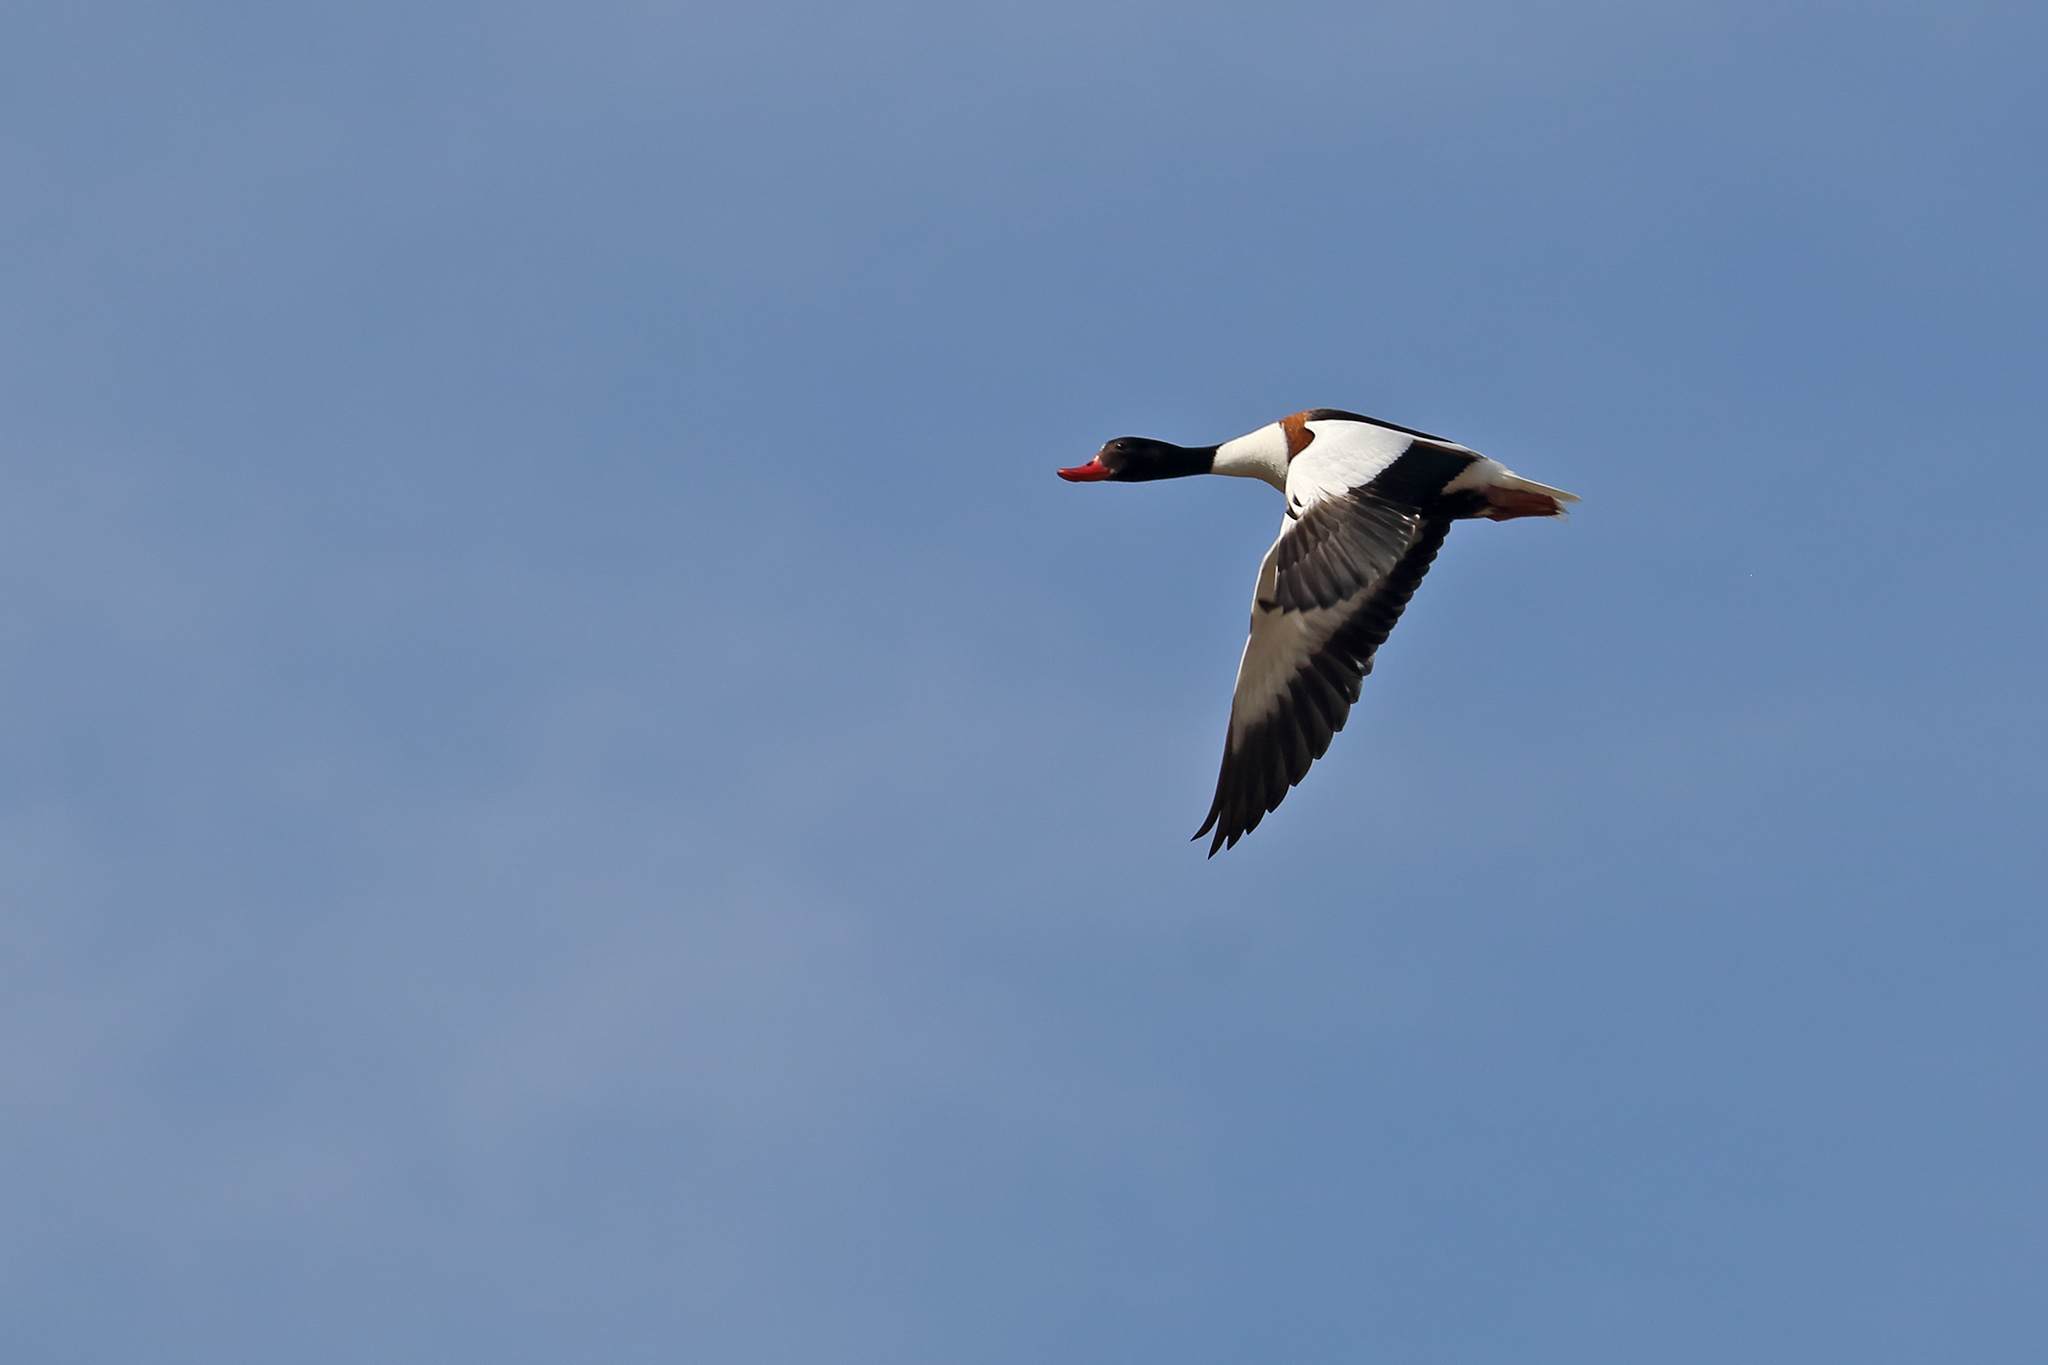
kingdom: Animalia
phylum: Chordata
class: Aves
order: Anseriformes
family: Anatidae
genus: Tadorna
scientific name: Tadorna tadorna
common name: Common shelduck
